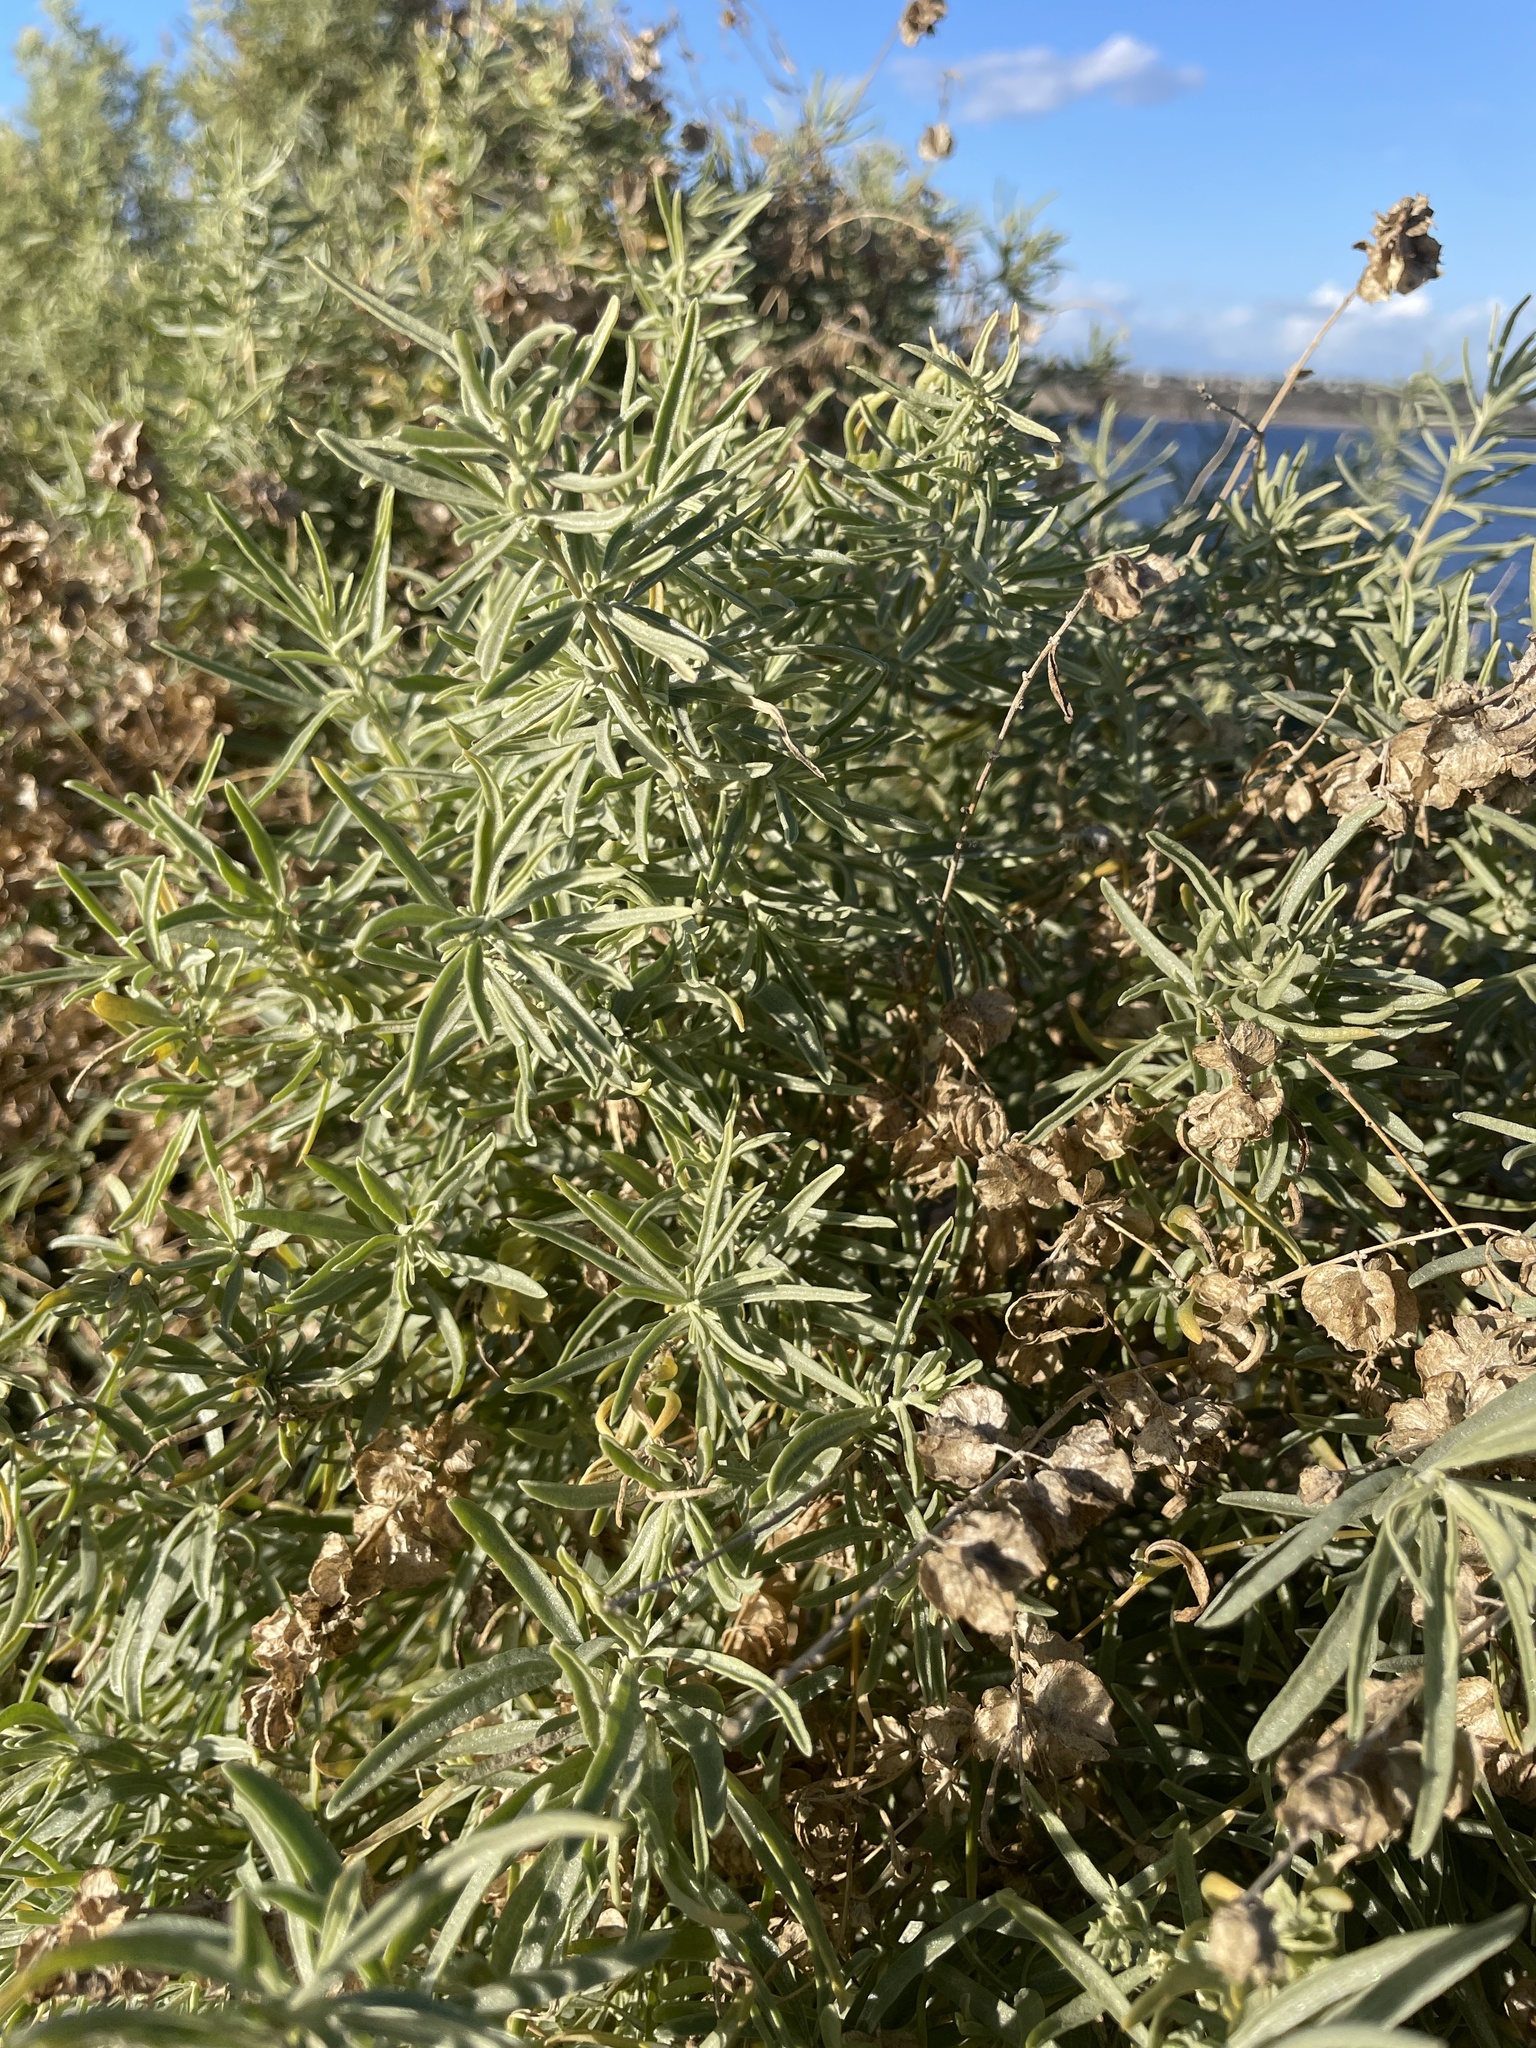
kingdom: Plantae
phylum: Tracheophyta
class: Magnoliopsida
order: Caryophyllales
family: Amaranthaceae
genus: Atriplex
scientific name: Atriplex canescens
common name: Four-wing saltbush
